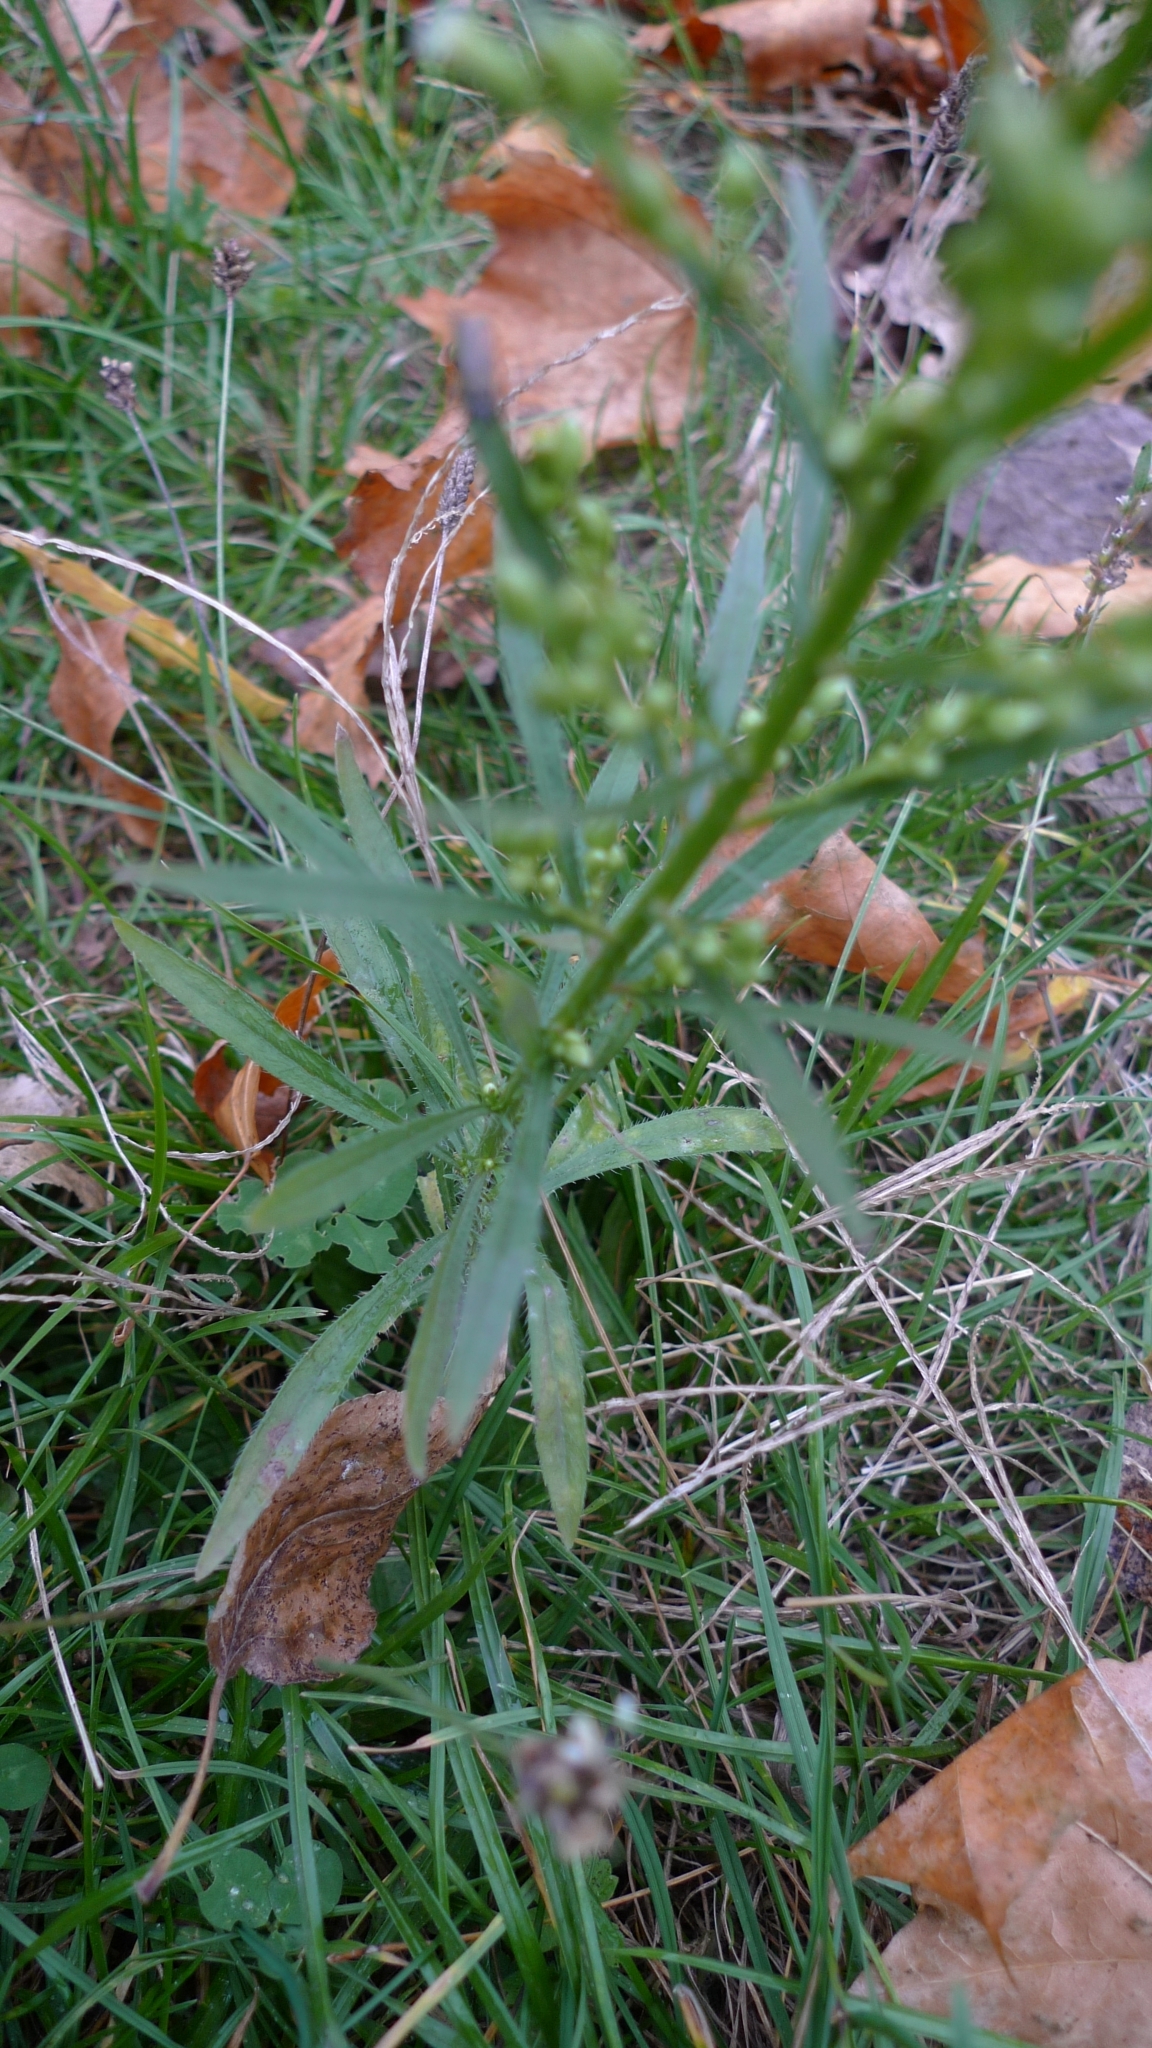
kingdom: Plantae
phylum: Tracheophyta
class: Magnoliopsida
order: Asterales
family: Asteraceae
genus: Erigeron
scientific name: Erigeron canadensis
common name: Canadian fleabane
